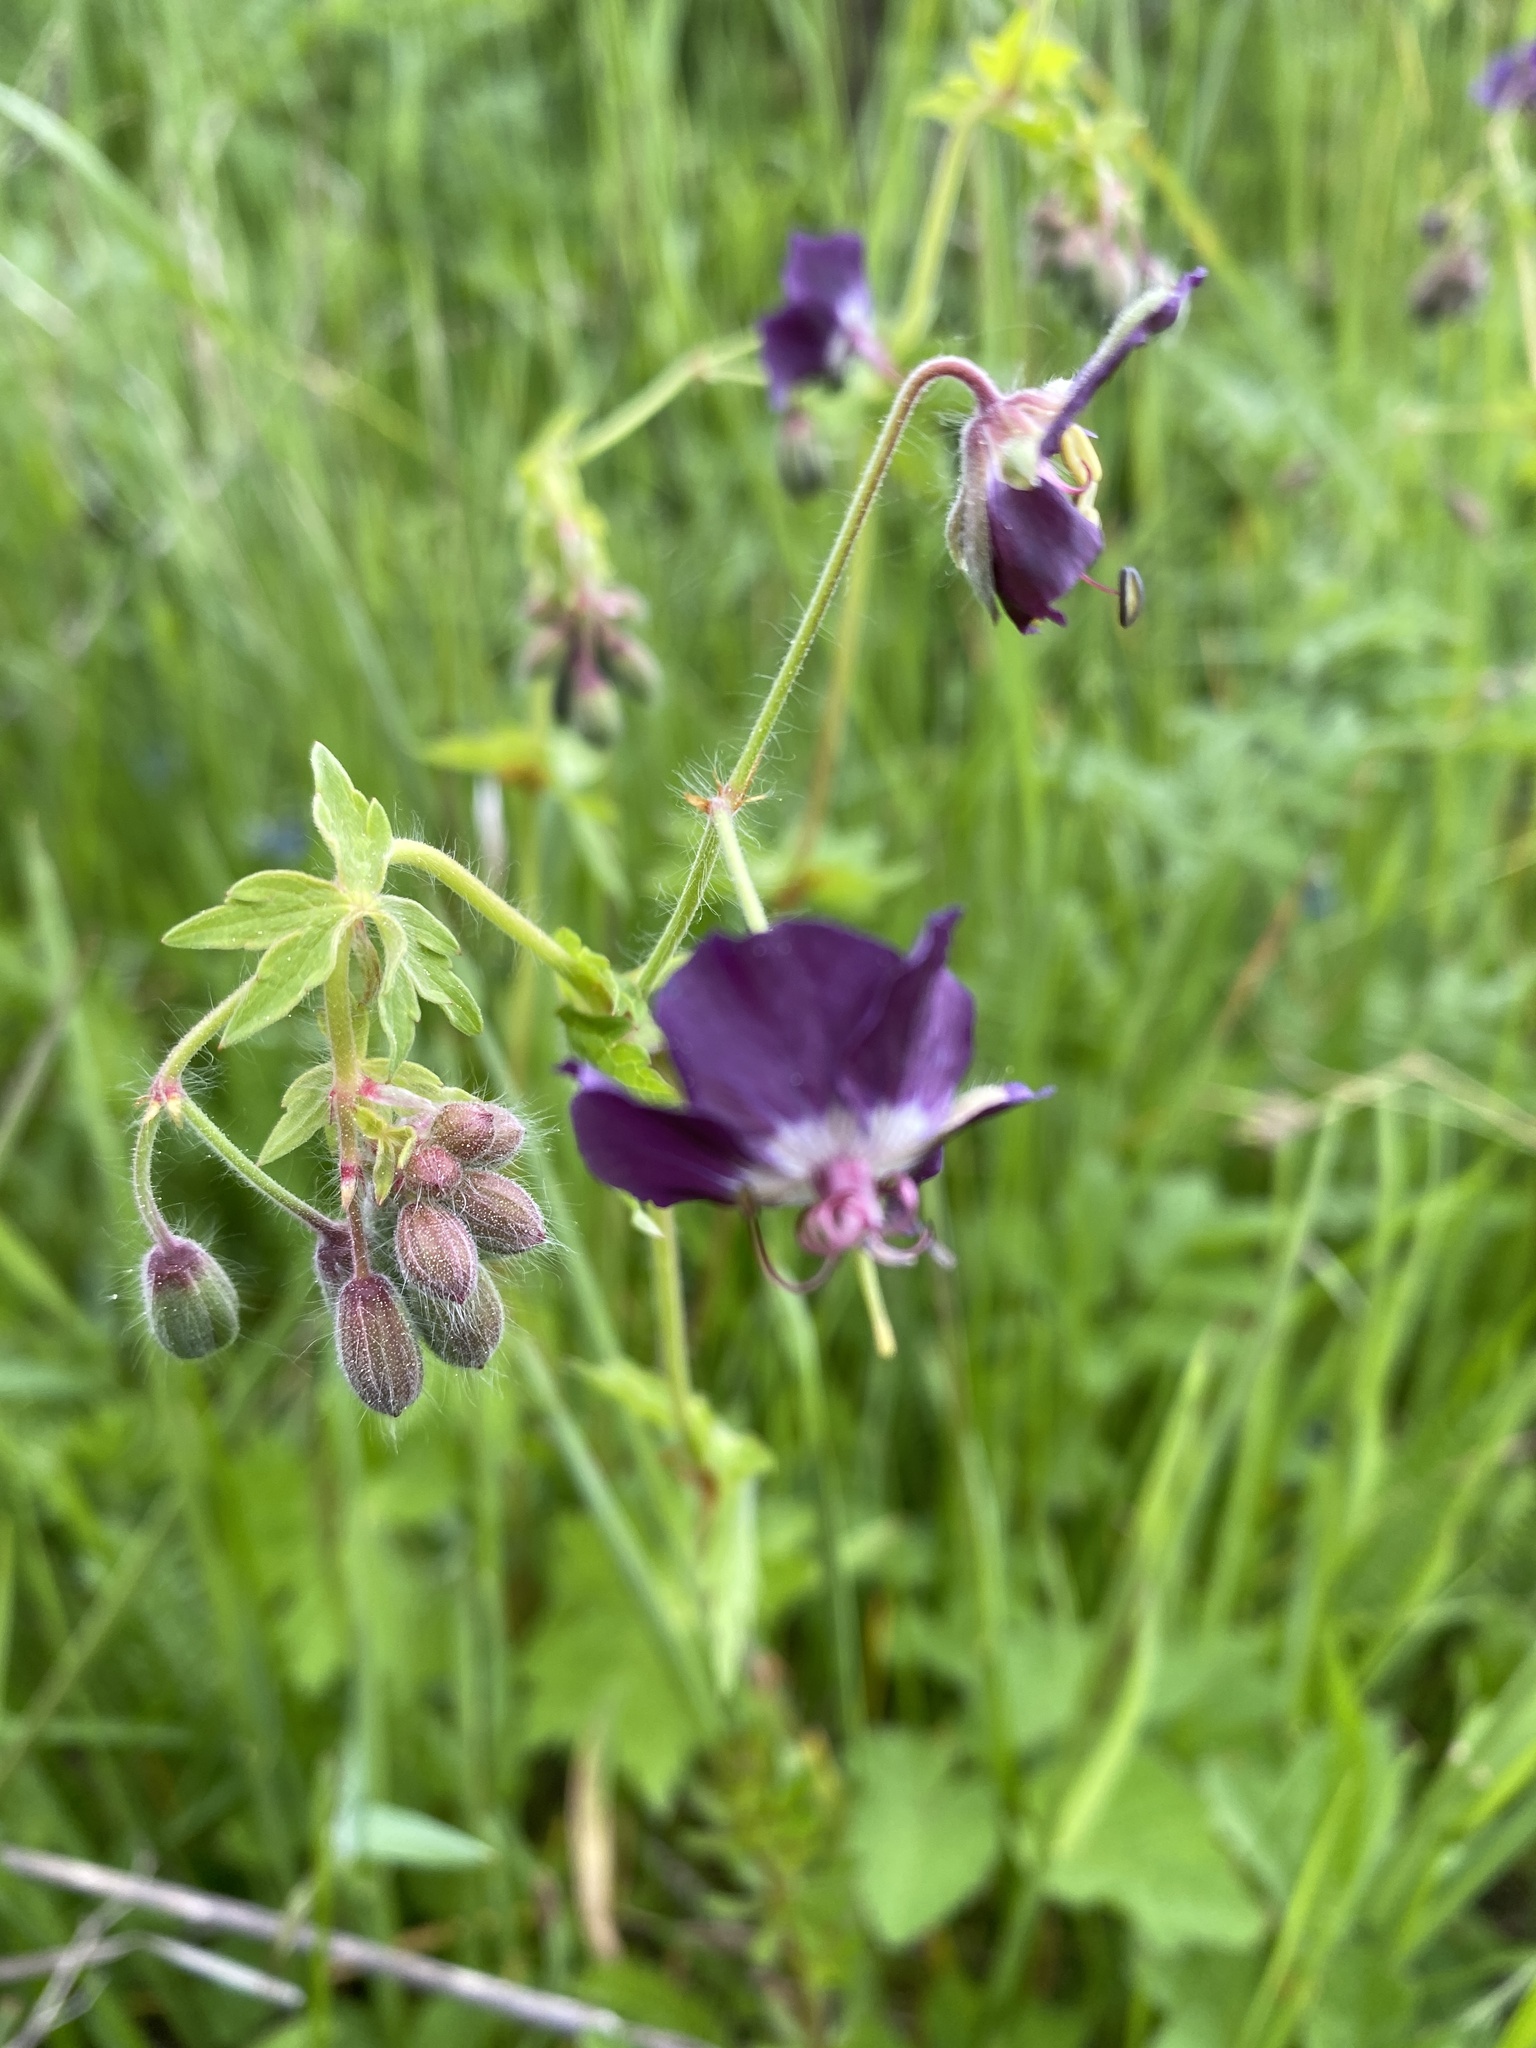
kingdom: Plantae
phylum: Tracheophyta
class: Magnoliopsida
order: Geraniales
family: Geraniaceae
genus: Geranium
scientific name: Geranium phaeum
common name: Dusky crane's-bill
